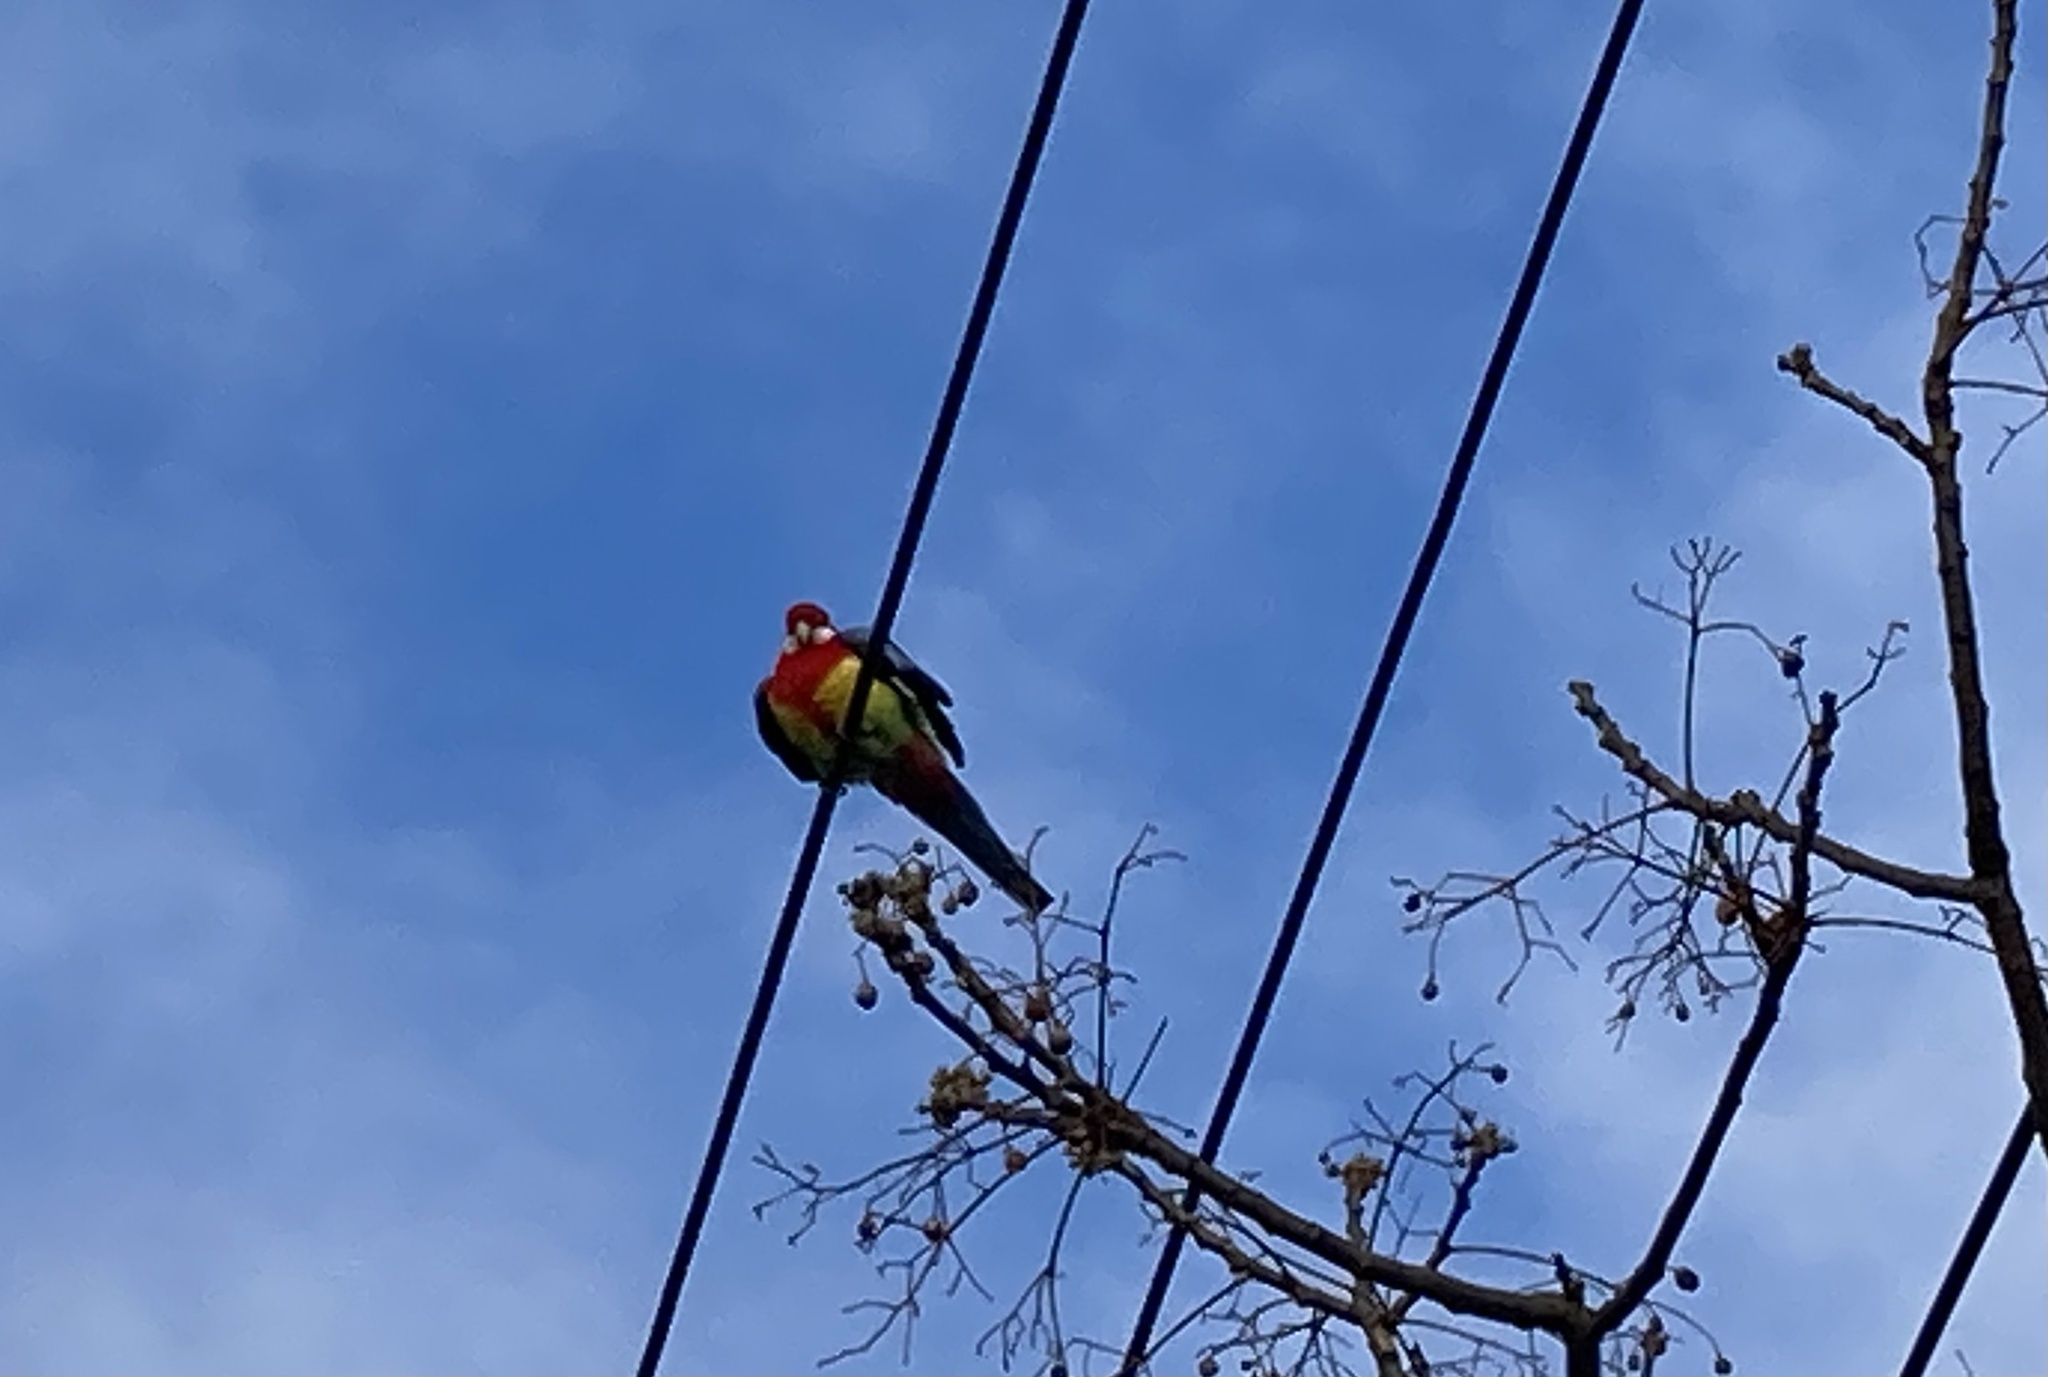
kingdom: Animalia
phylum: Chordata
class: Aves
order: Psittaciformes
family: Psittacidae
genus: Platycercus
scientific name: Platycercus eximius
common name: Eastern rosella
